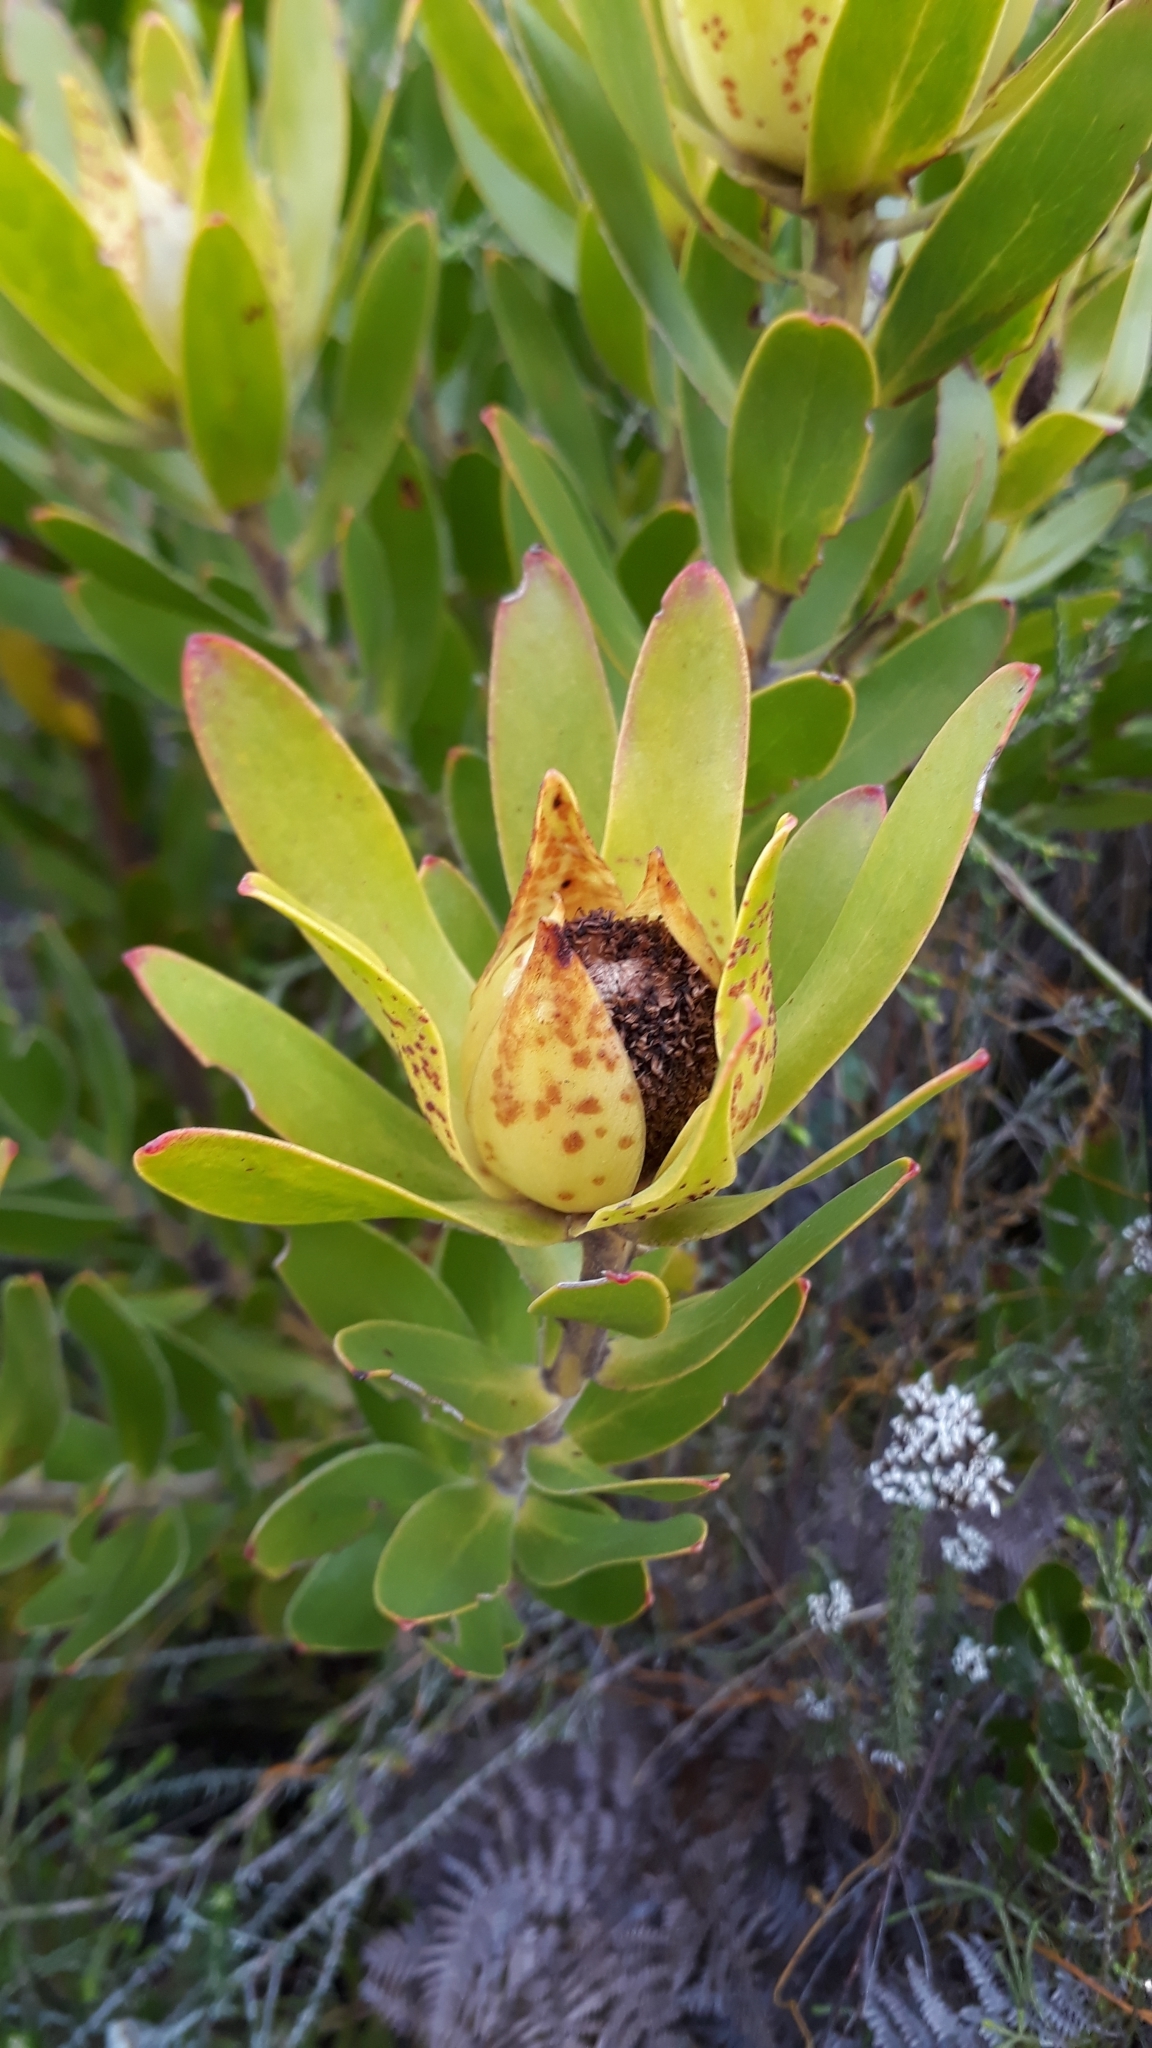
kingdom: Plantae
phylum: Tracheophyta
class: Magnoliopsida
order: Proteales
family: Proteaceae
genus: Leucadendron
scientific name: Leucadendron laureolum
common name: Golden sunshinebush
